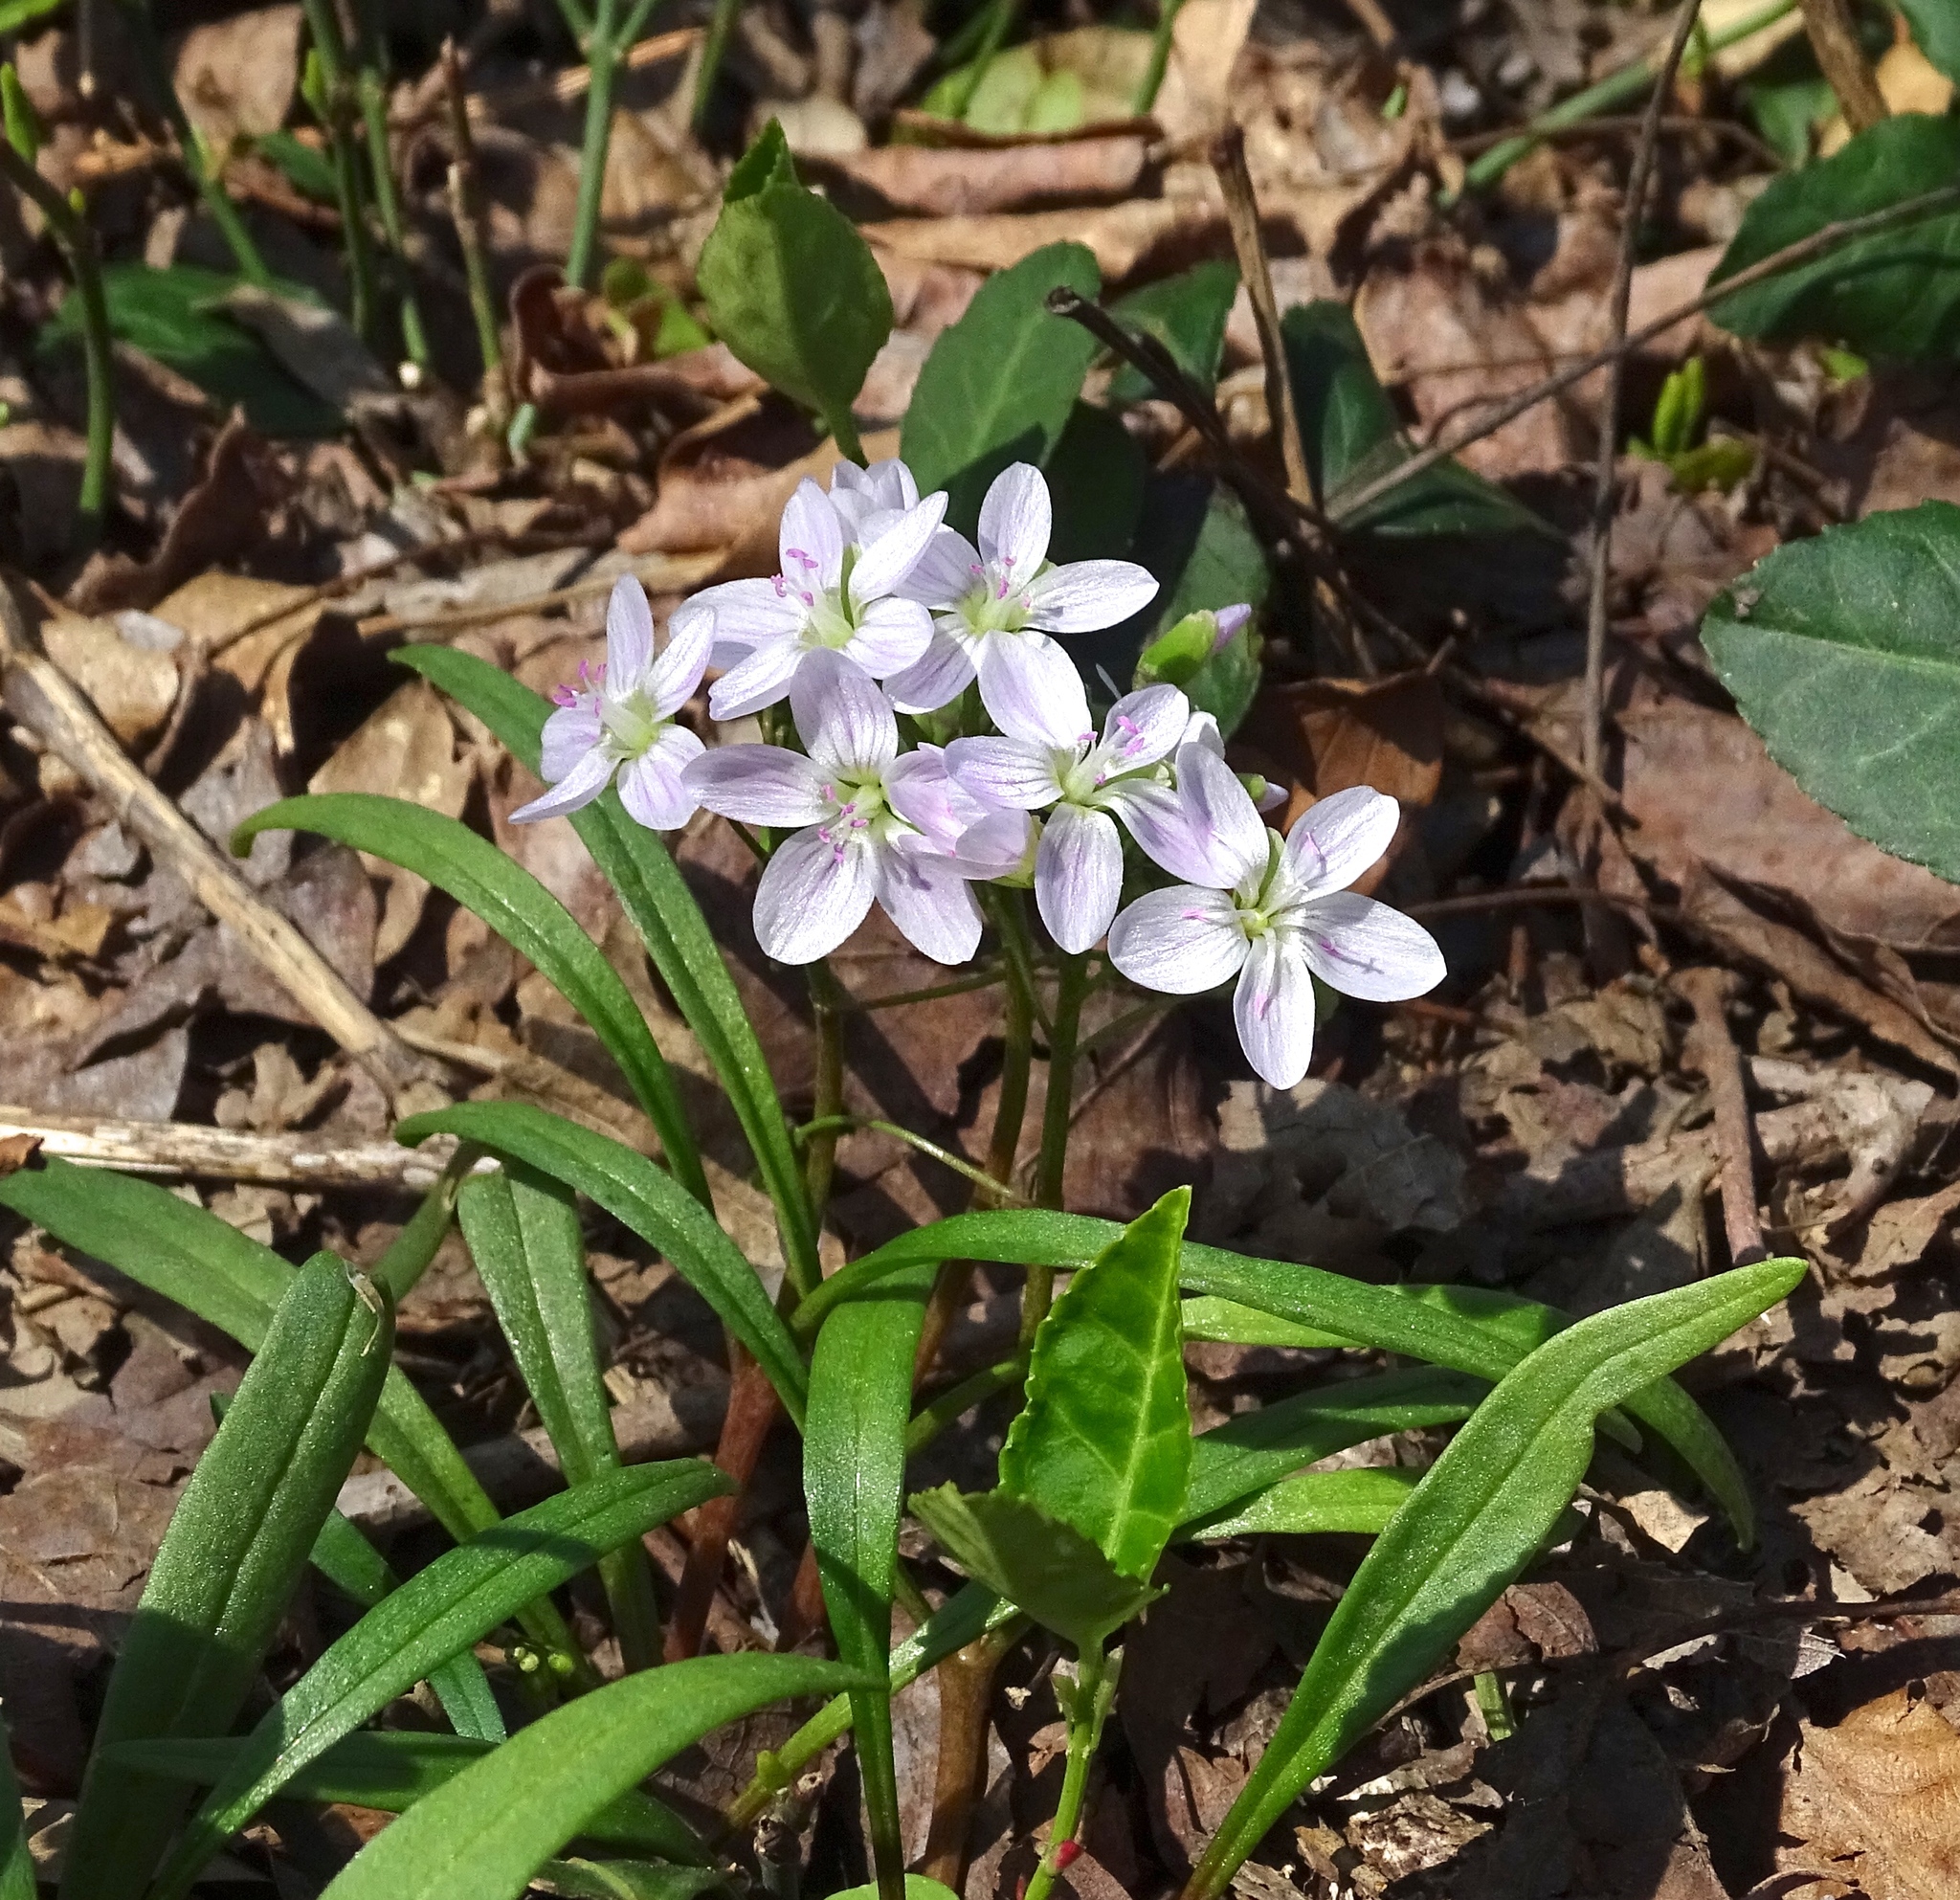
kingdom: Plantae
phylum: Tracheophyta
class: Magnoliopsida
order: Caryophyllales
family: Montiaceae
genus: Claytonia
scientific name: Claytonia virginica
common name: Virginia springbeauty
